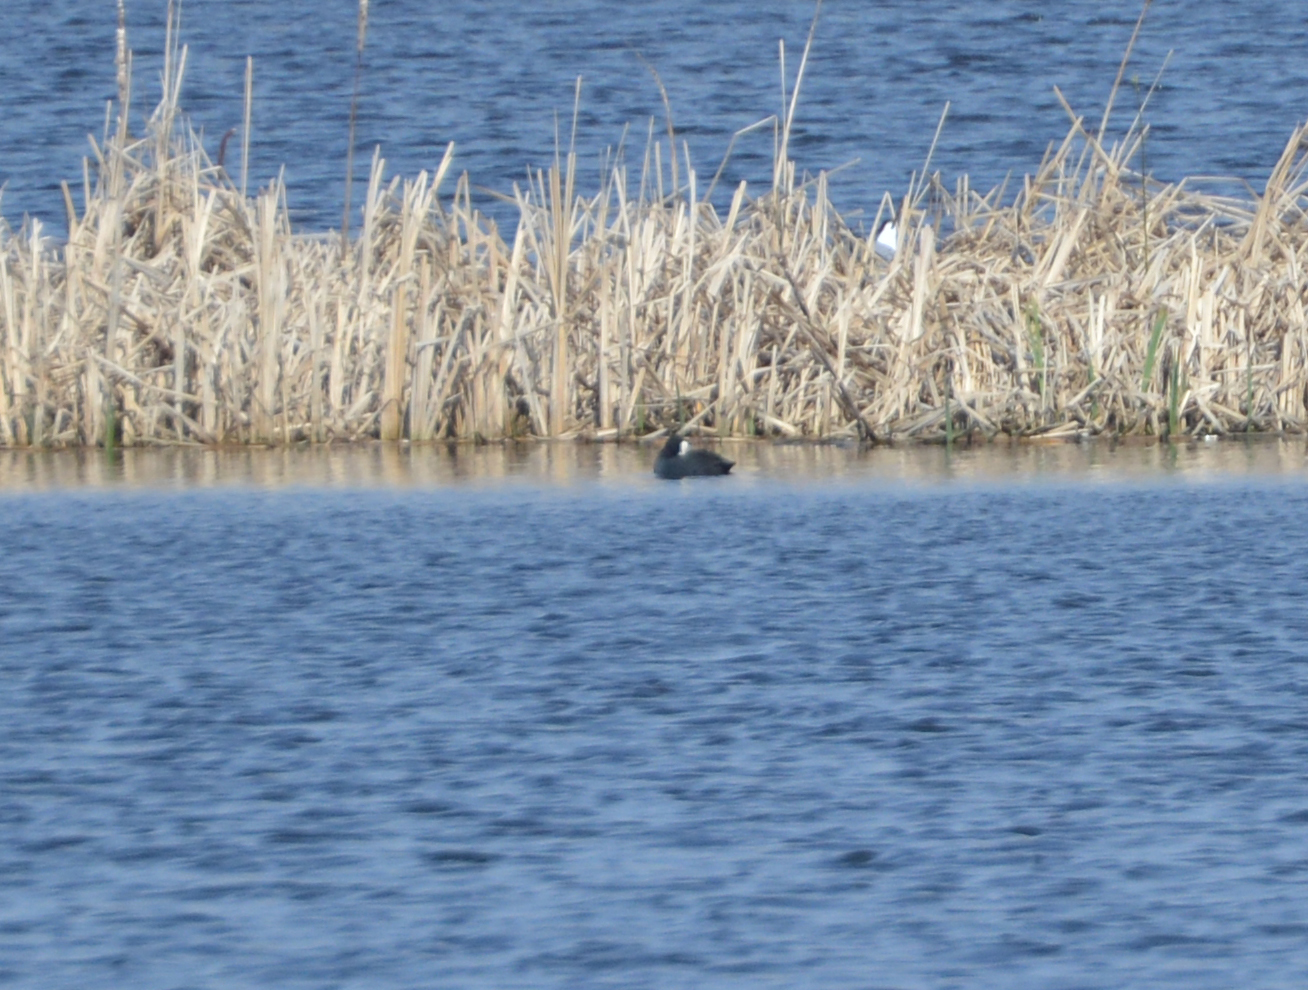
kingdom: Animalia
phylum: Chordata
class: Aves
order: Gruiformes
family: Rallidae
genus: Fulica
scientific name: Fulica atra
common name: Eurasian coot
